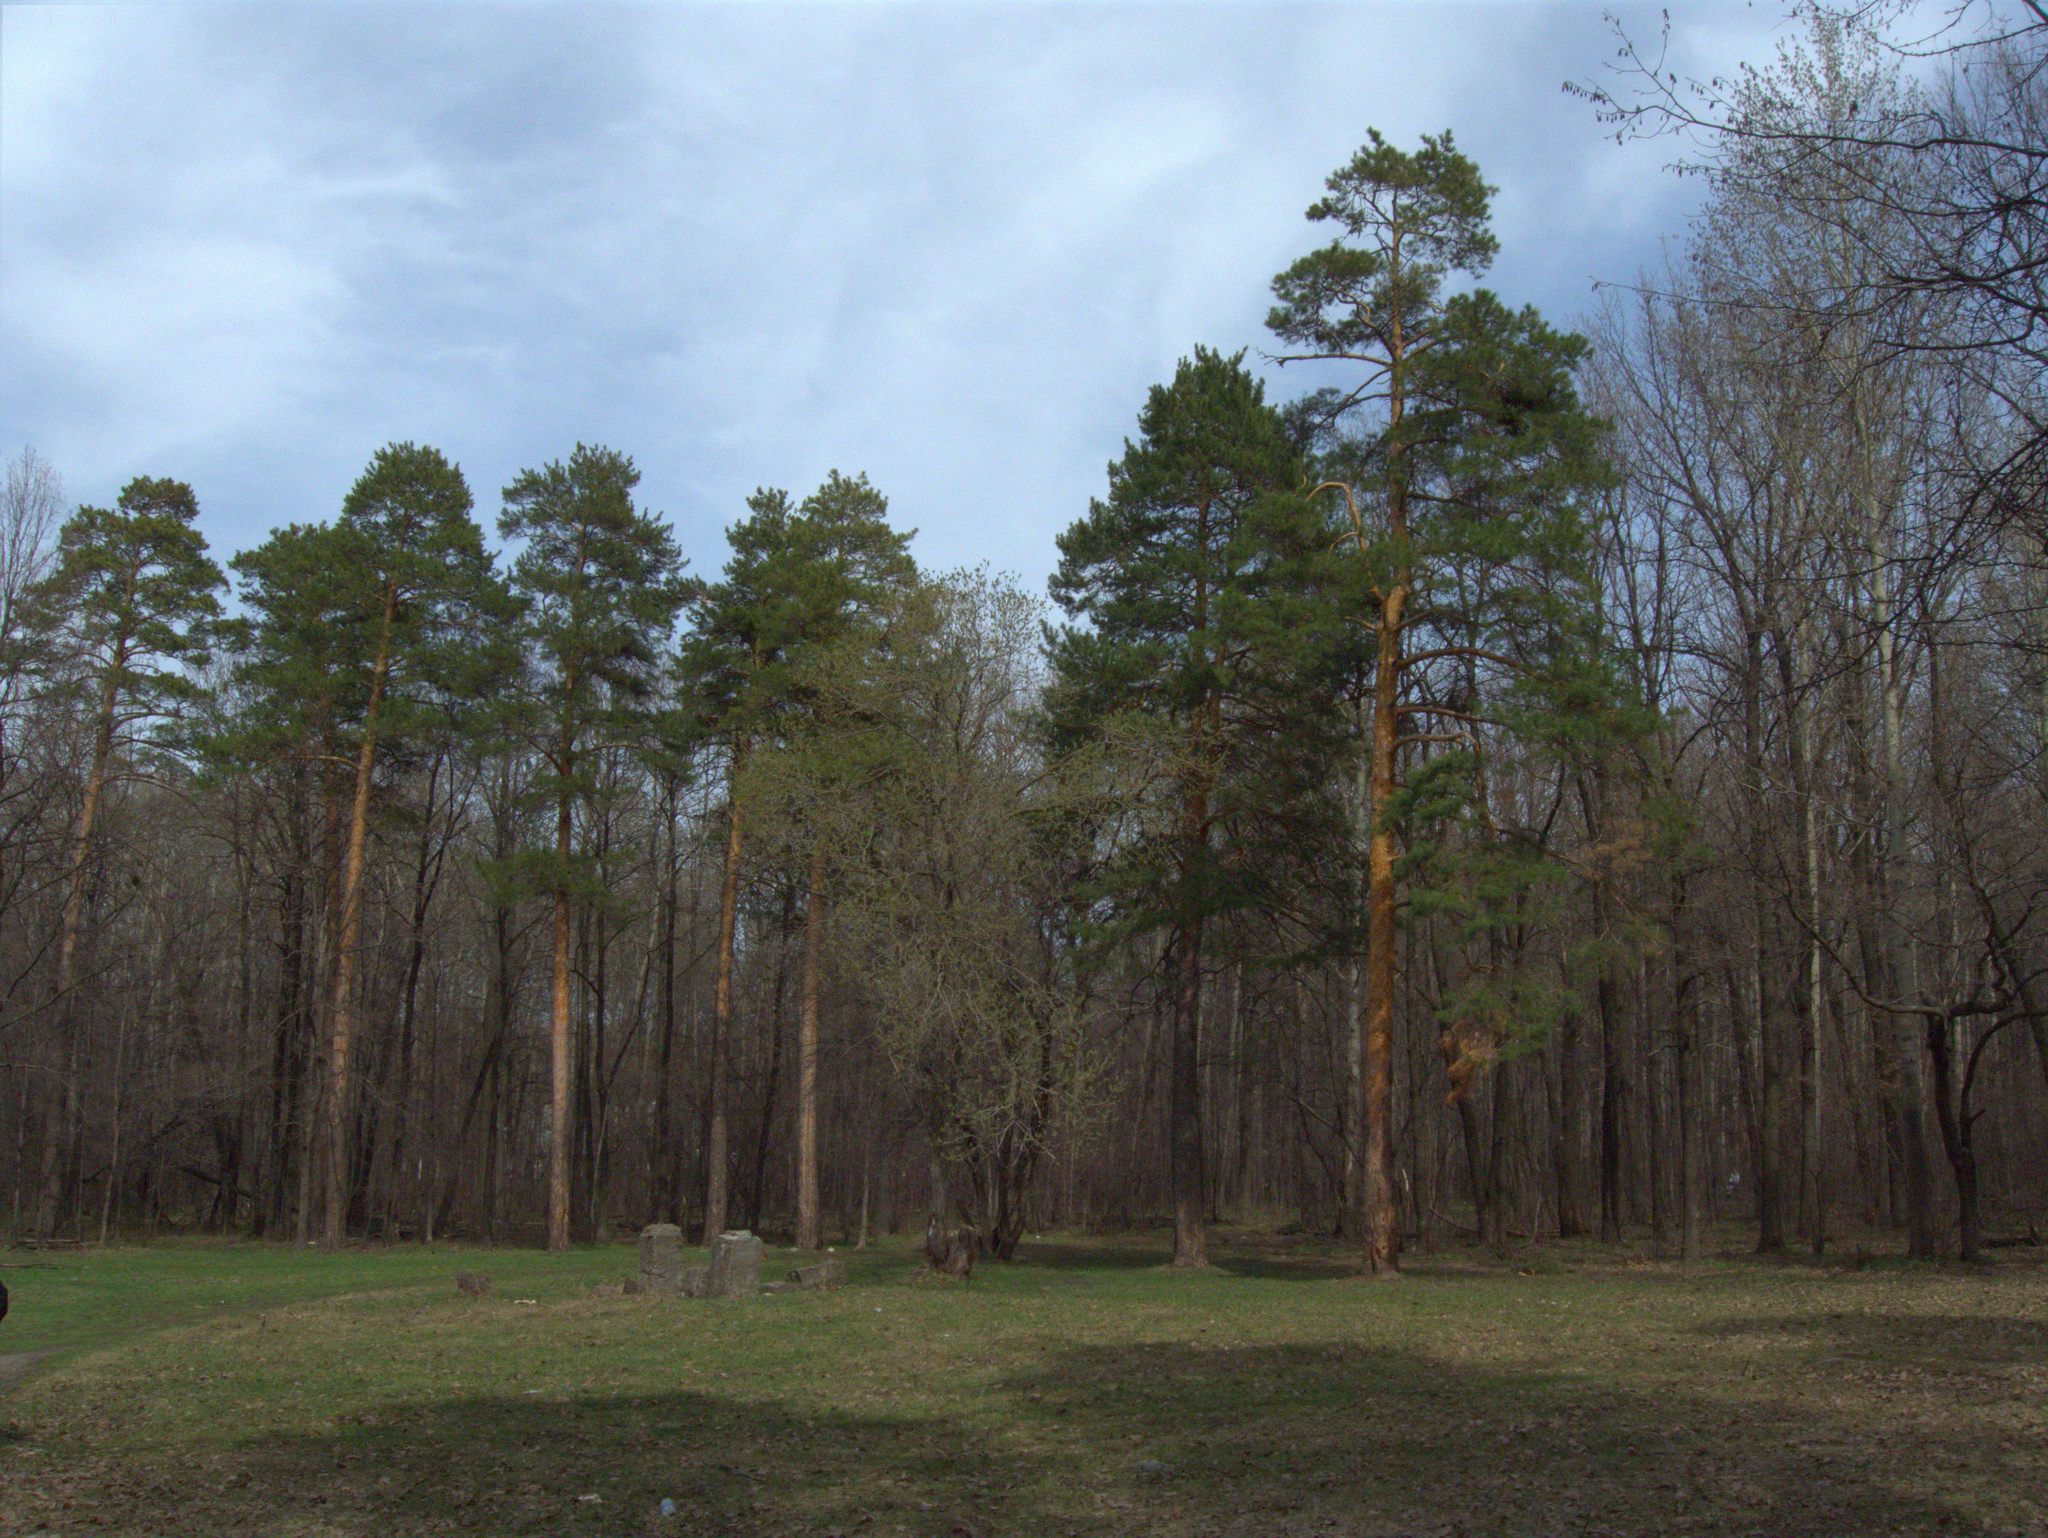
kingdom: Plantae
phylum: Tracheophyta
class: Pinopsida
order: Pinales
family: Pinaceae
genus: Pinus
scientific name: Pinus sylvestris
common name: Scots pine
